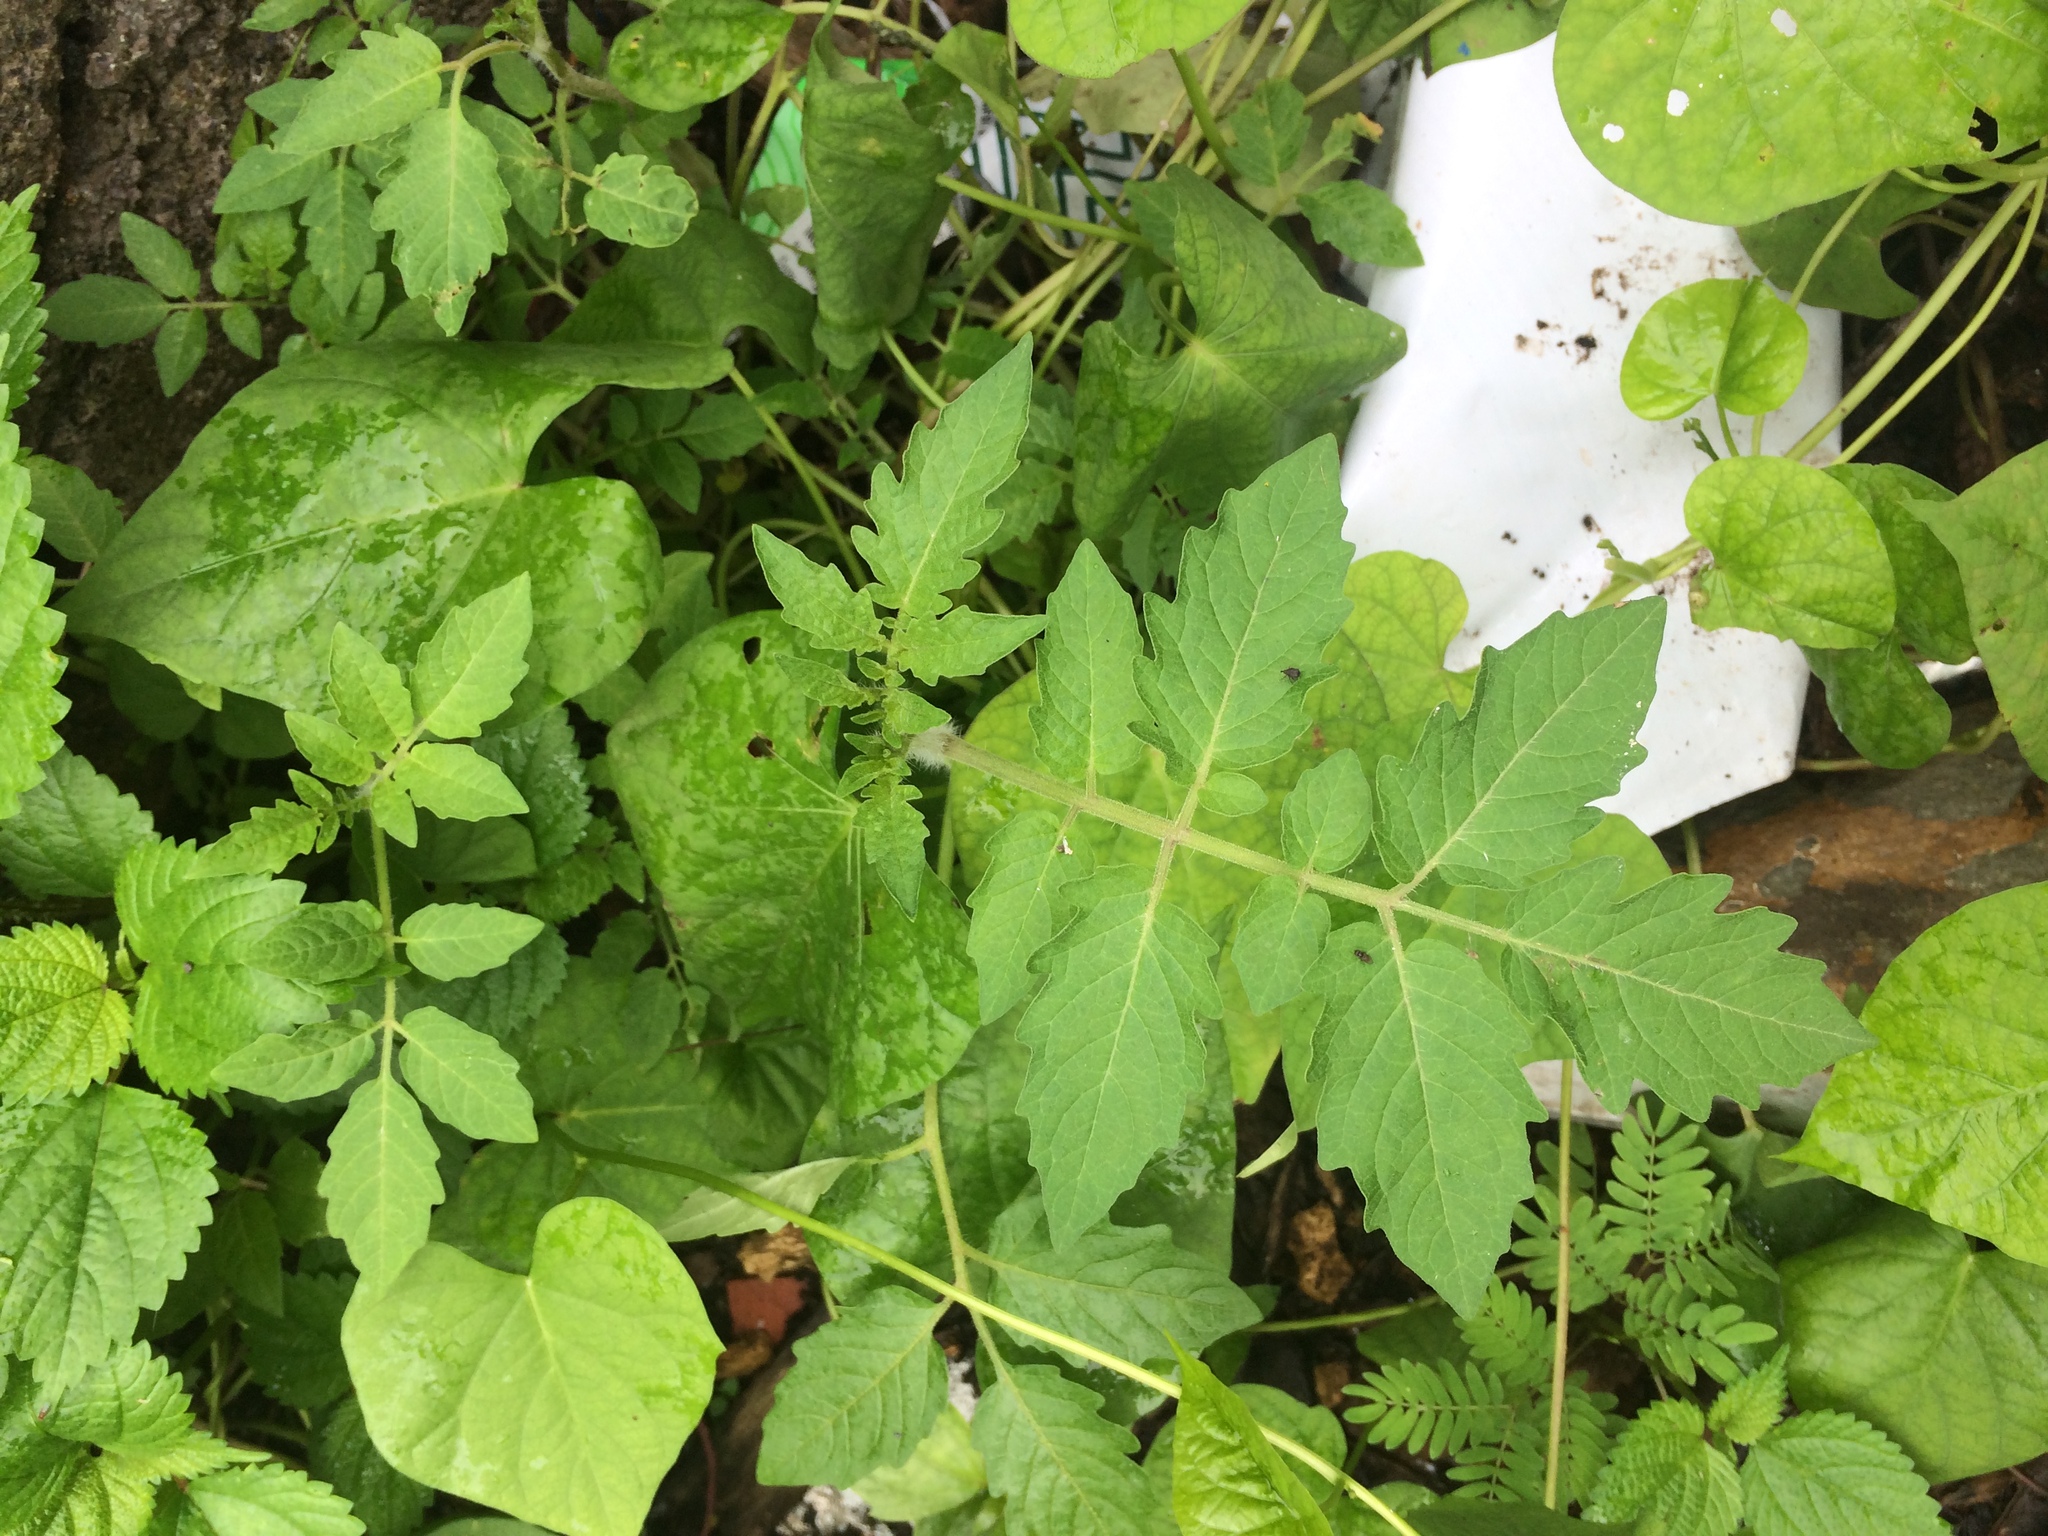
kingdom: Plantae
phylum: Tracheophyta
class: Magnoliopsida
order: Solanales
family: Solanaceae
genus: Solanum
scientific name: Solanum lycopersicum
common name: Garden tomato
